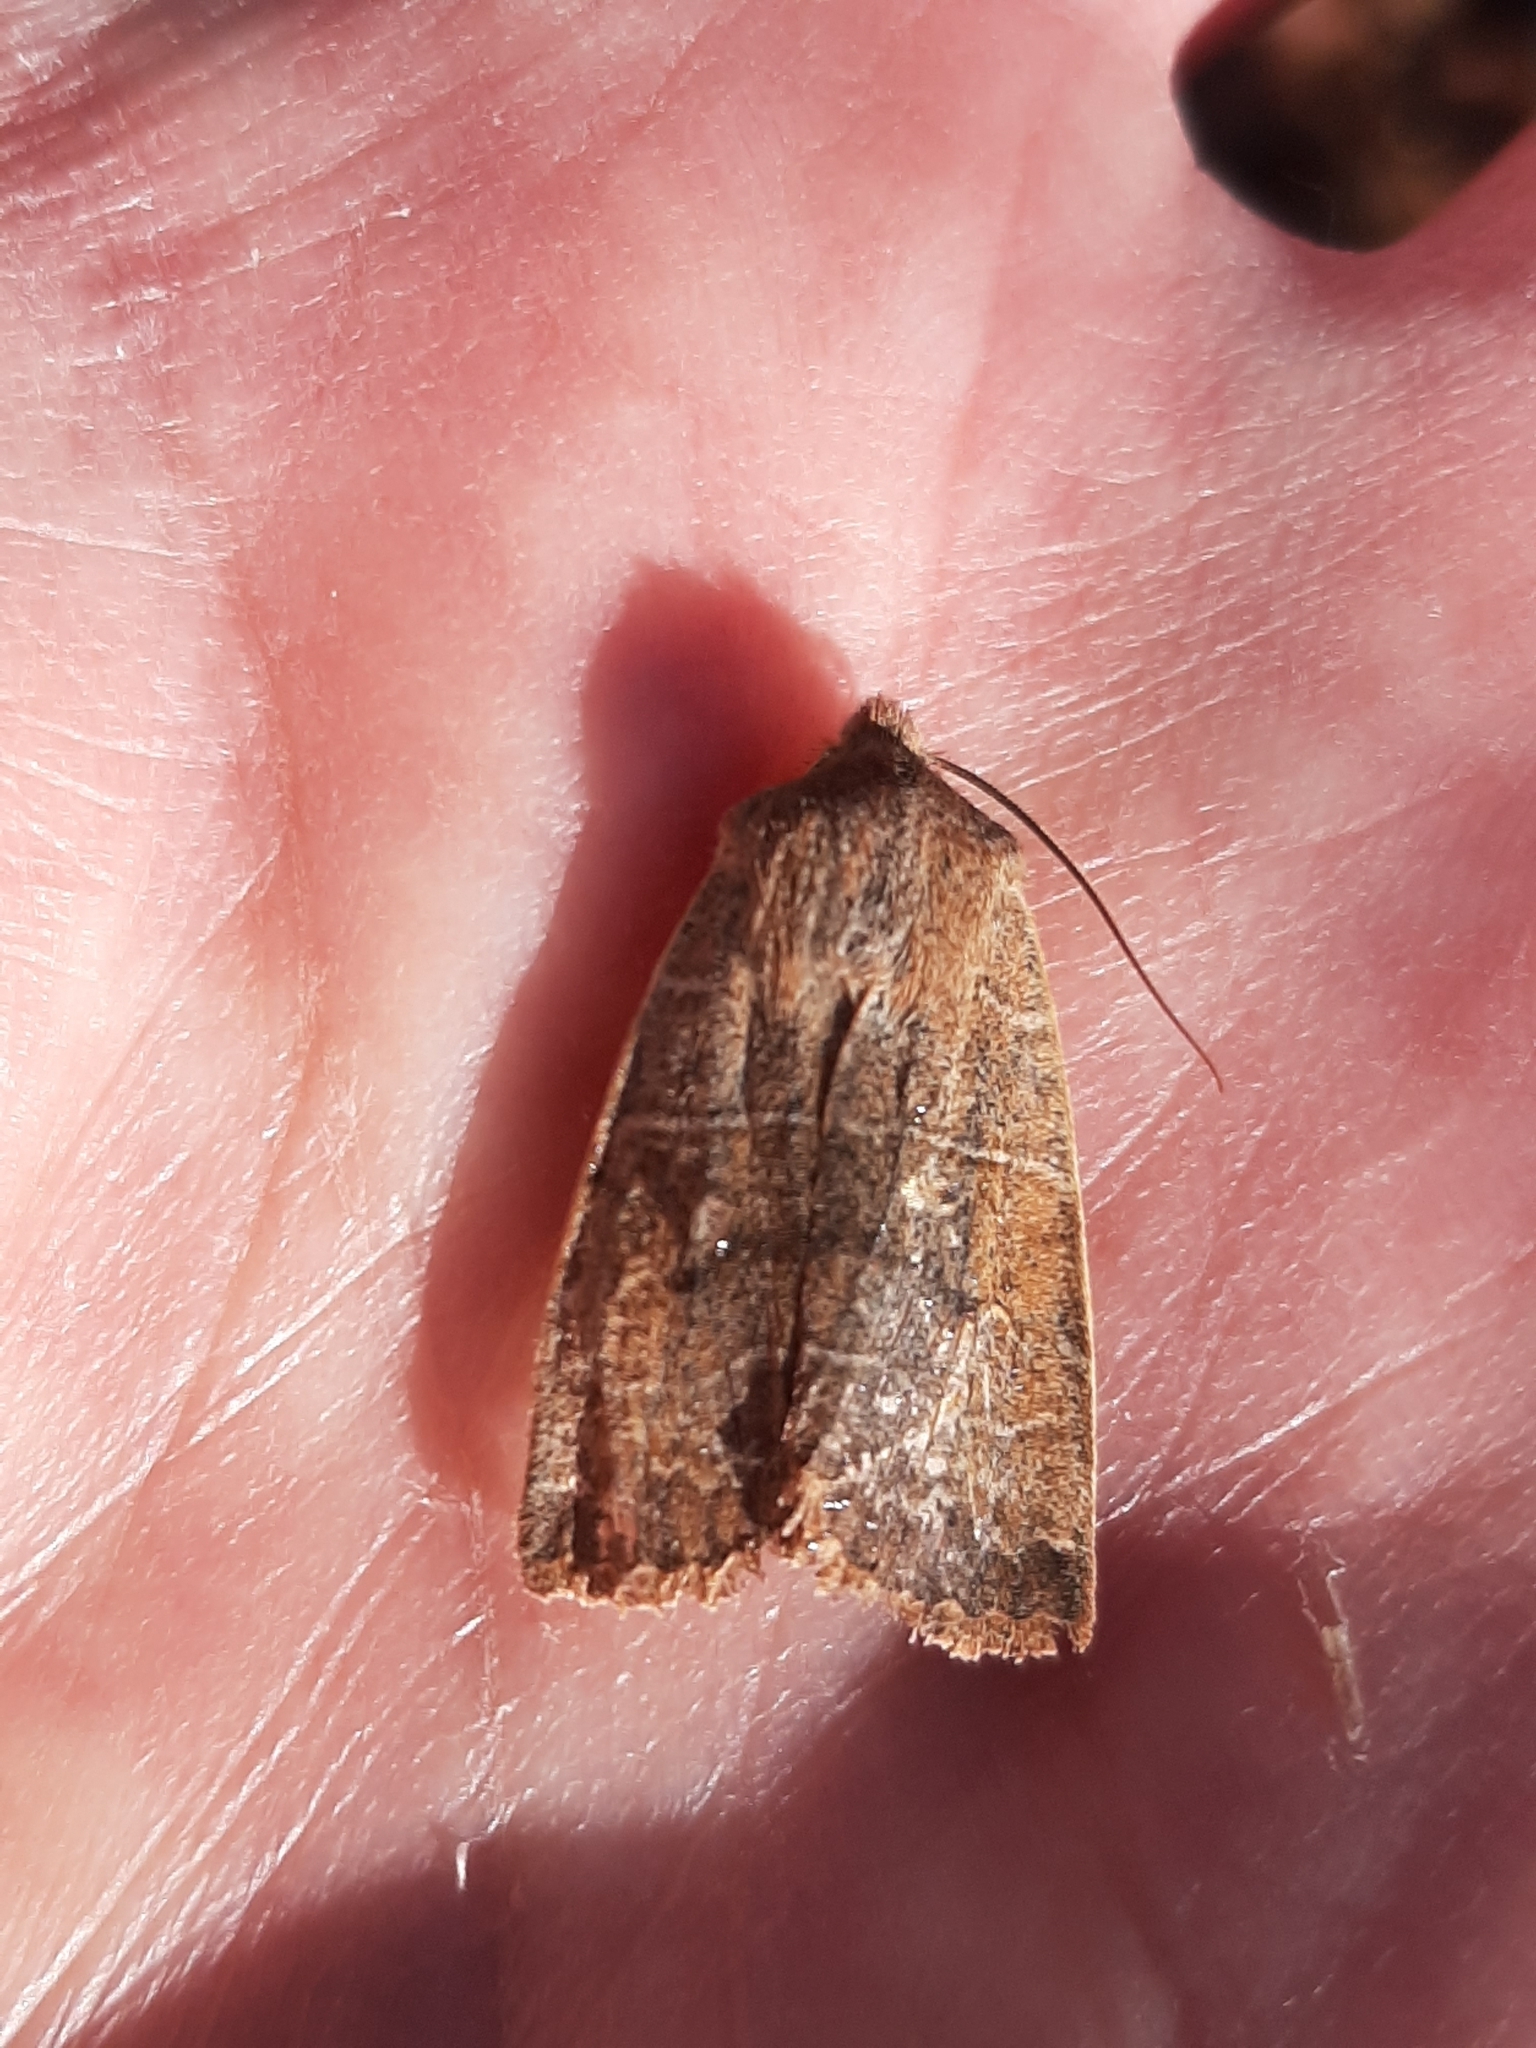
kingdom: Animalia
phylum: Arthropoda
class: Insecta
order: Lepidoptera
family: Noctuidae
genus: Eupsilia
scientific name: Eupsilia morrisoni
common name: Morrison's sallow
